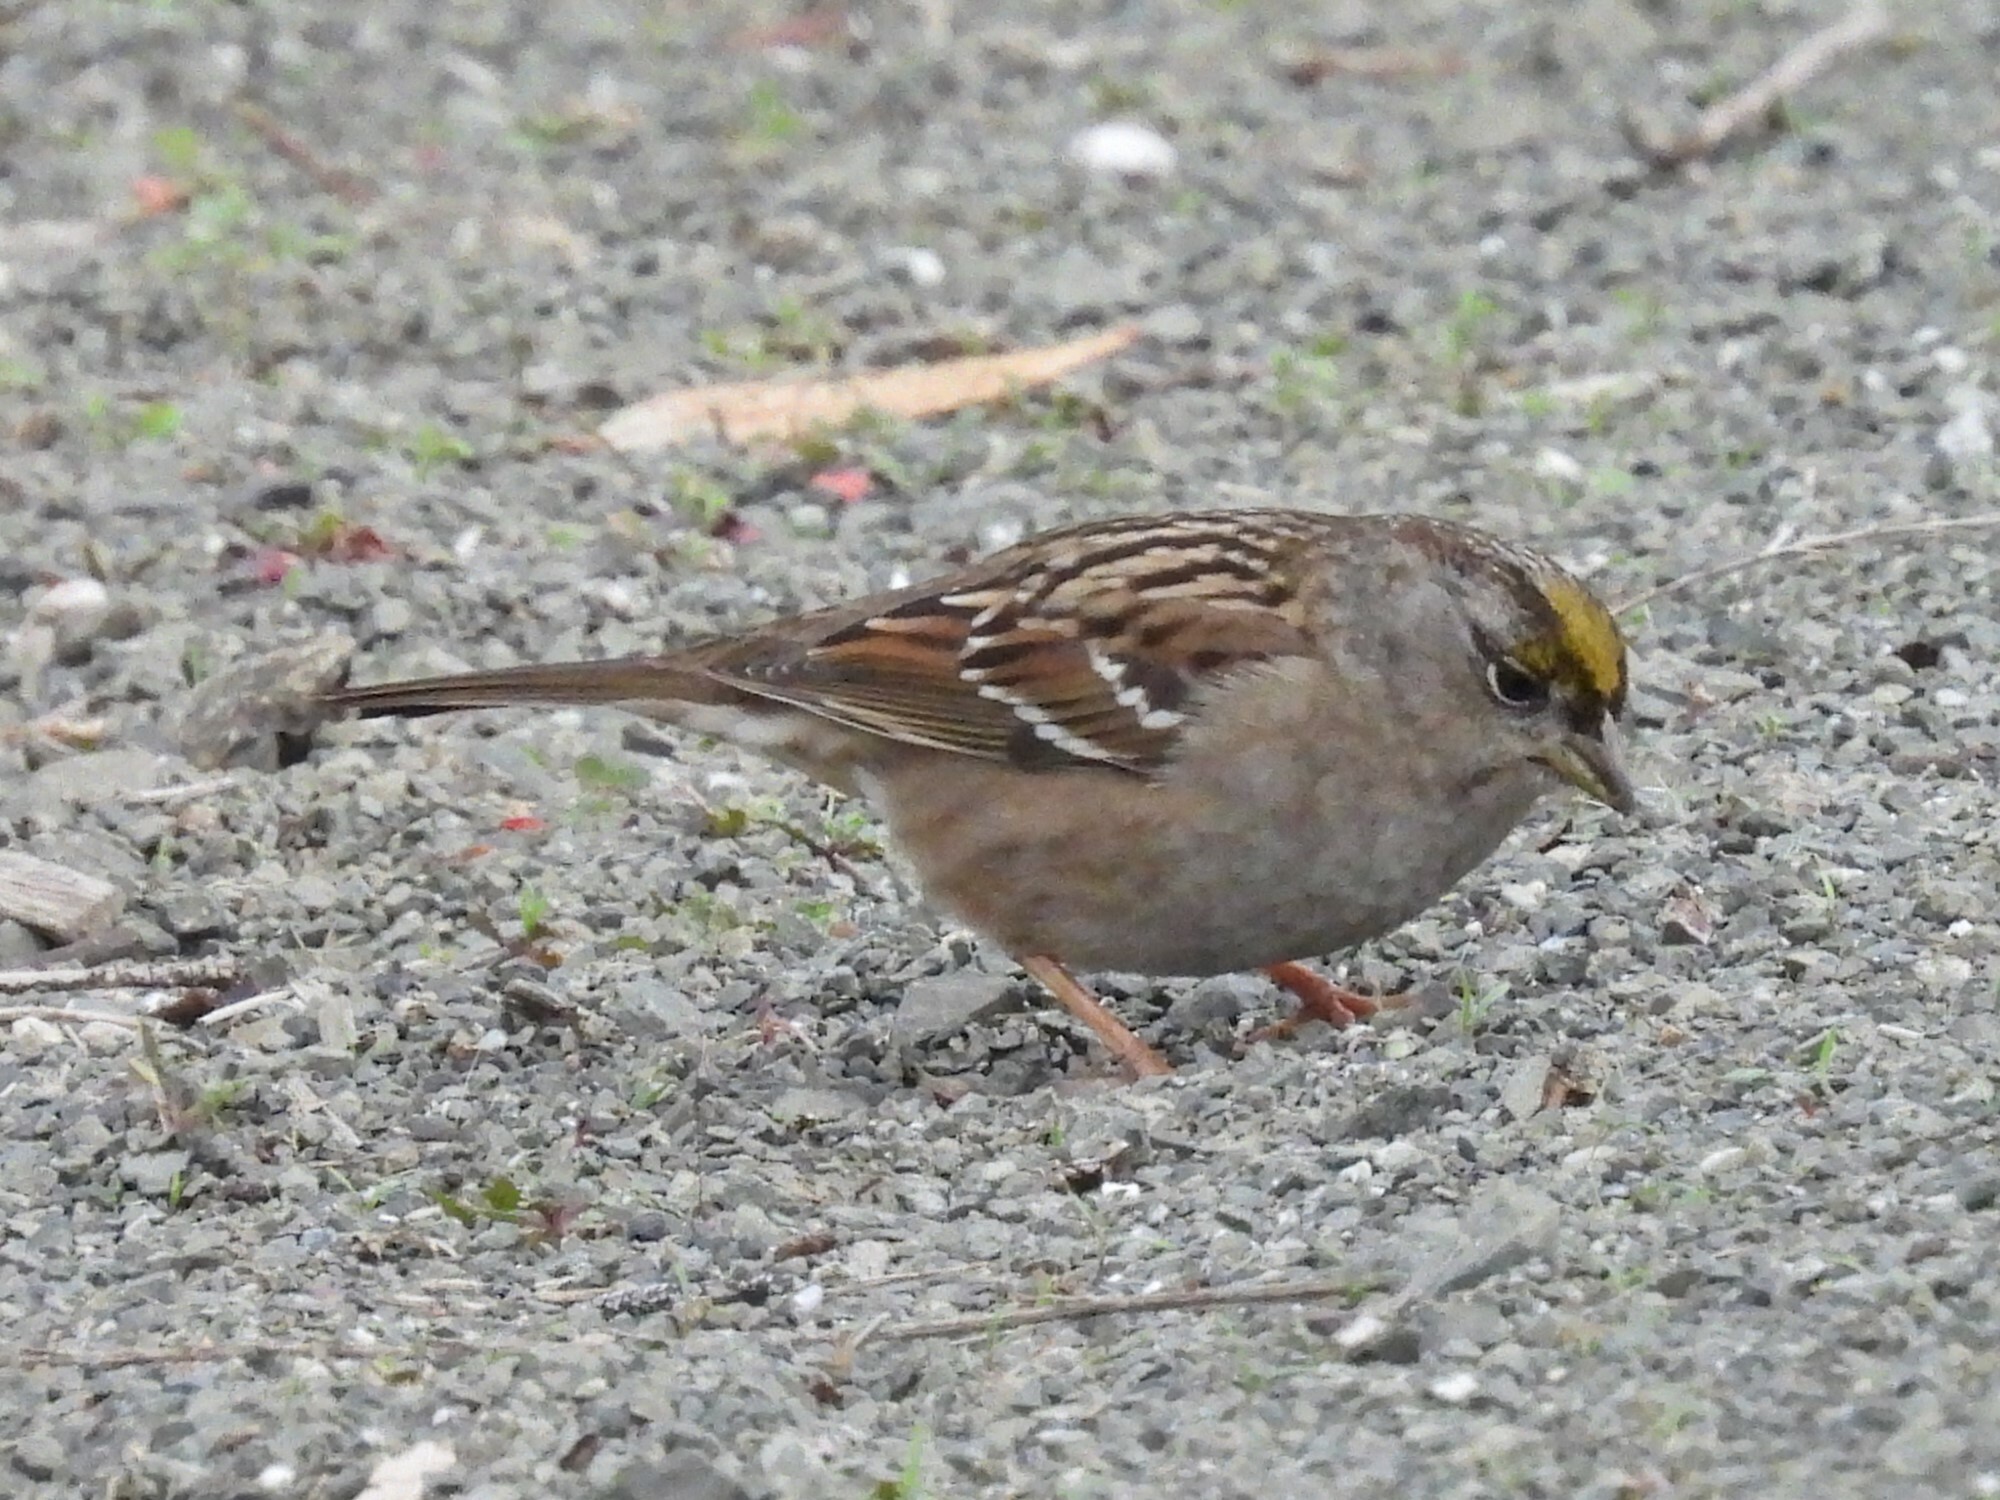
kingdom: Animalia
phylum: Chordata
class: Aves
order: Passeriformes
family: Passerellidae
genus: Zonotrichia
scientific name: Zonotrichia atricapilla
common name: Golden-crowned sparrow
